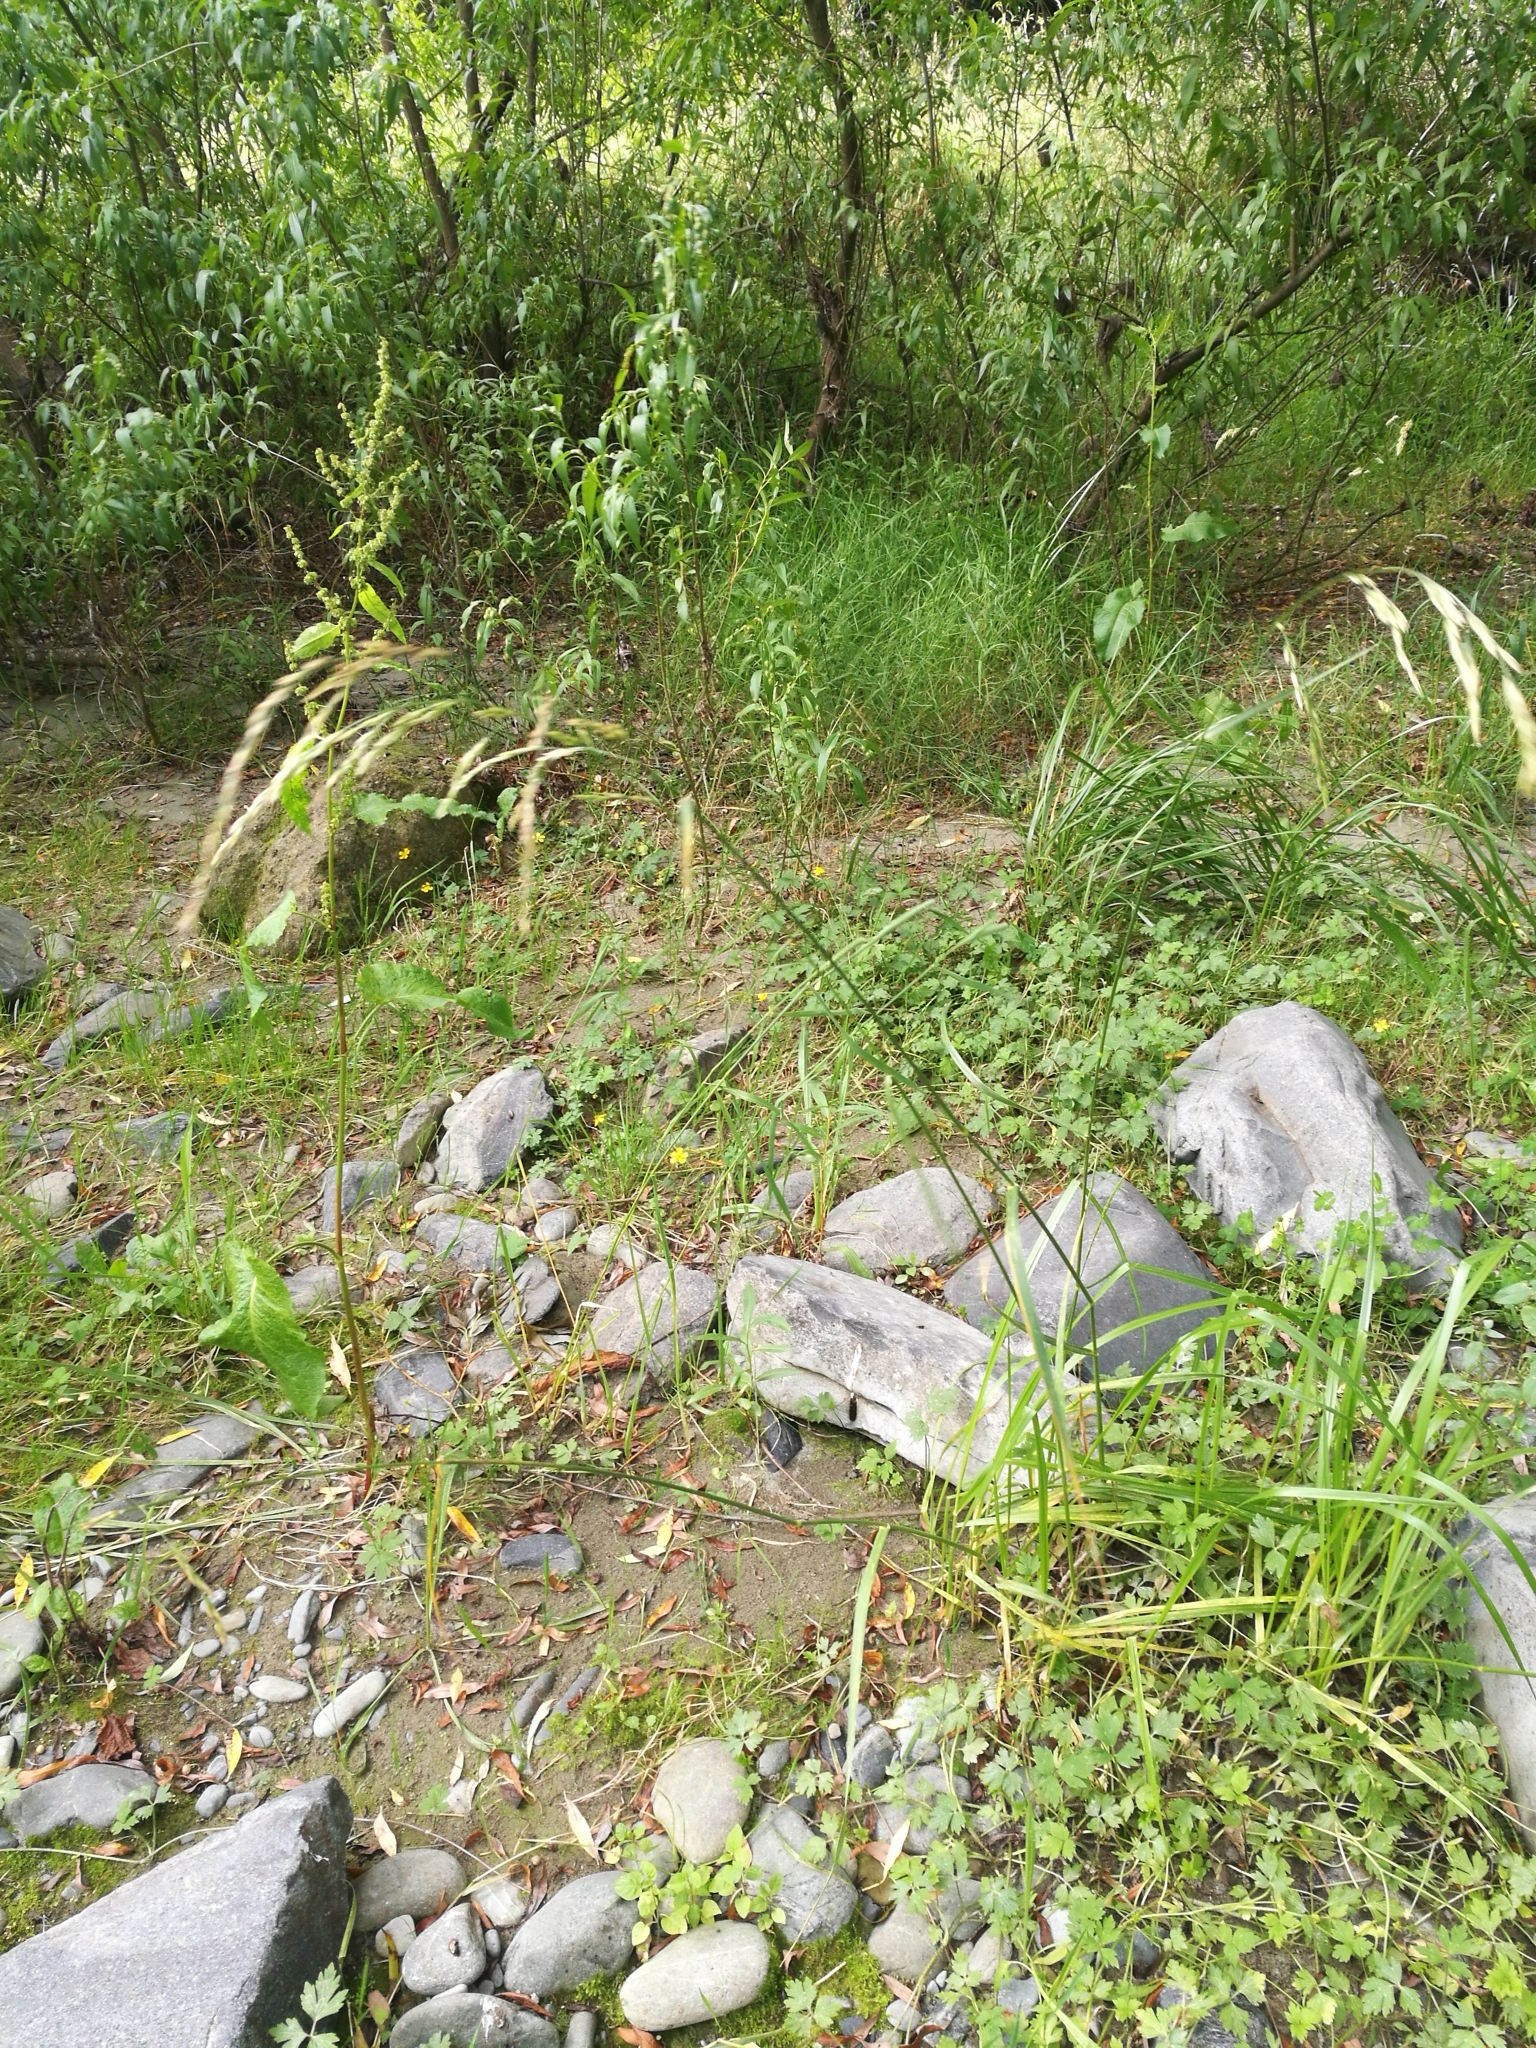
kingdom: Plantae
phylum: Tracheophyta
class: Liliopsida
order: Poales
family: Poaceae
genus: Lolium
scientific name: Lolium arundinaceum
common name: Reed fescue
